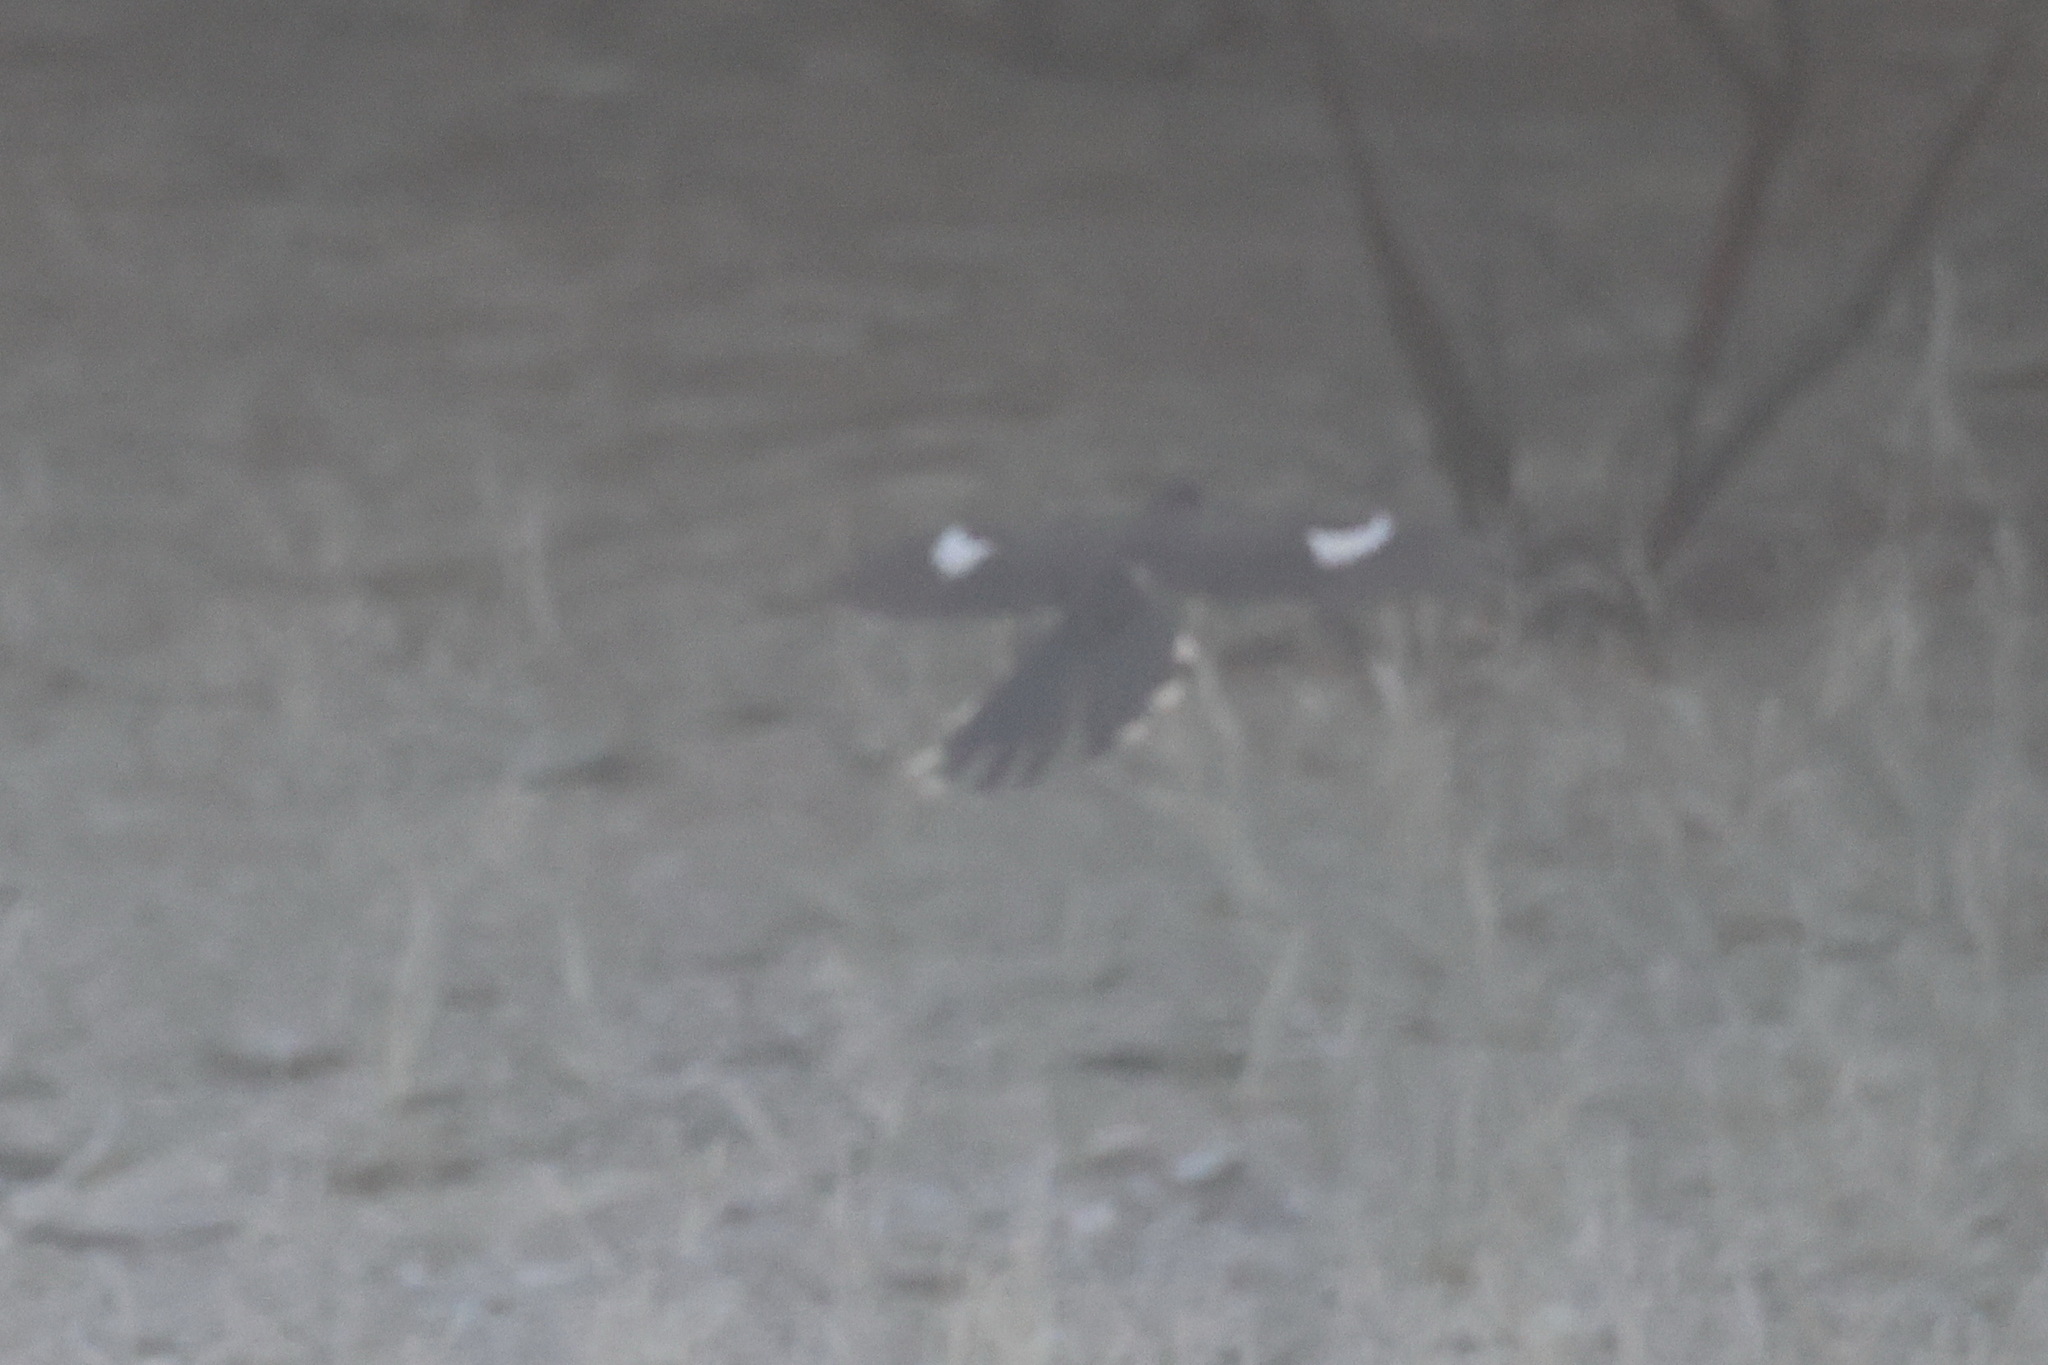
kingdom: Animalia
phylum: Chordata
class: Aves
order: Cuculiformes
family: Cuculidae
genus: Clamator
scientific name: Clamator jacobinus
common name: Jacobin cuckoo
